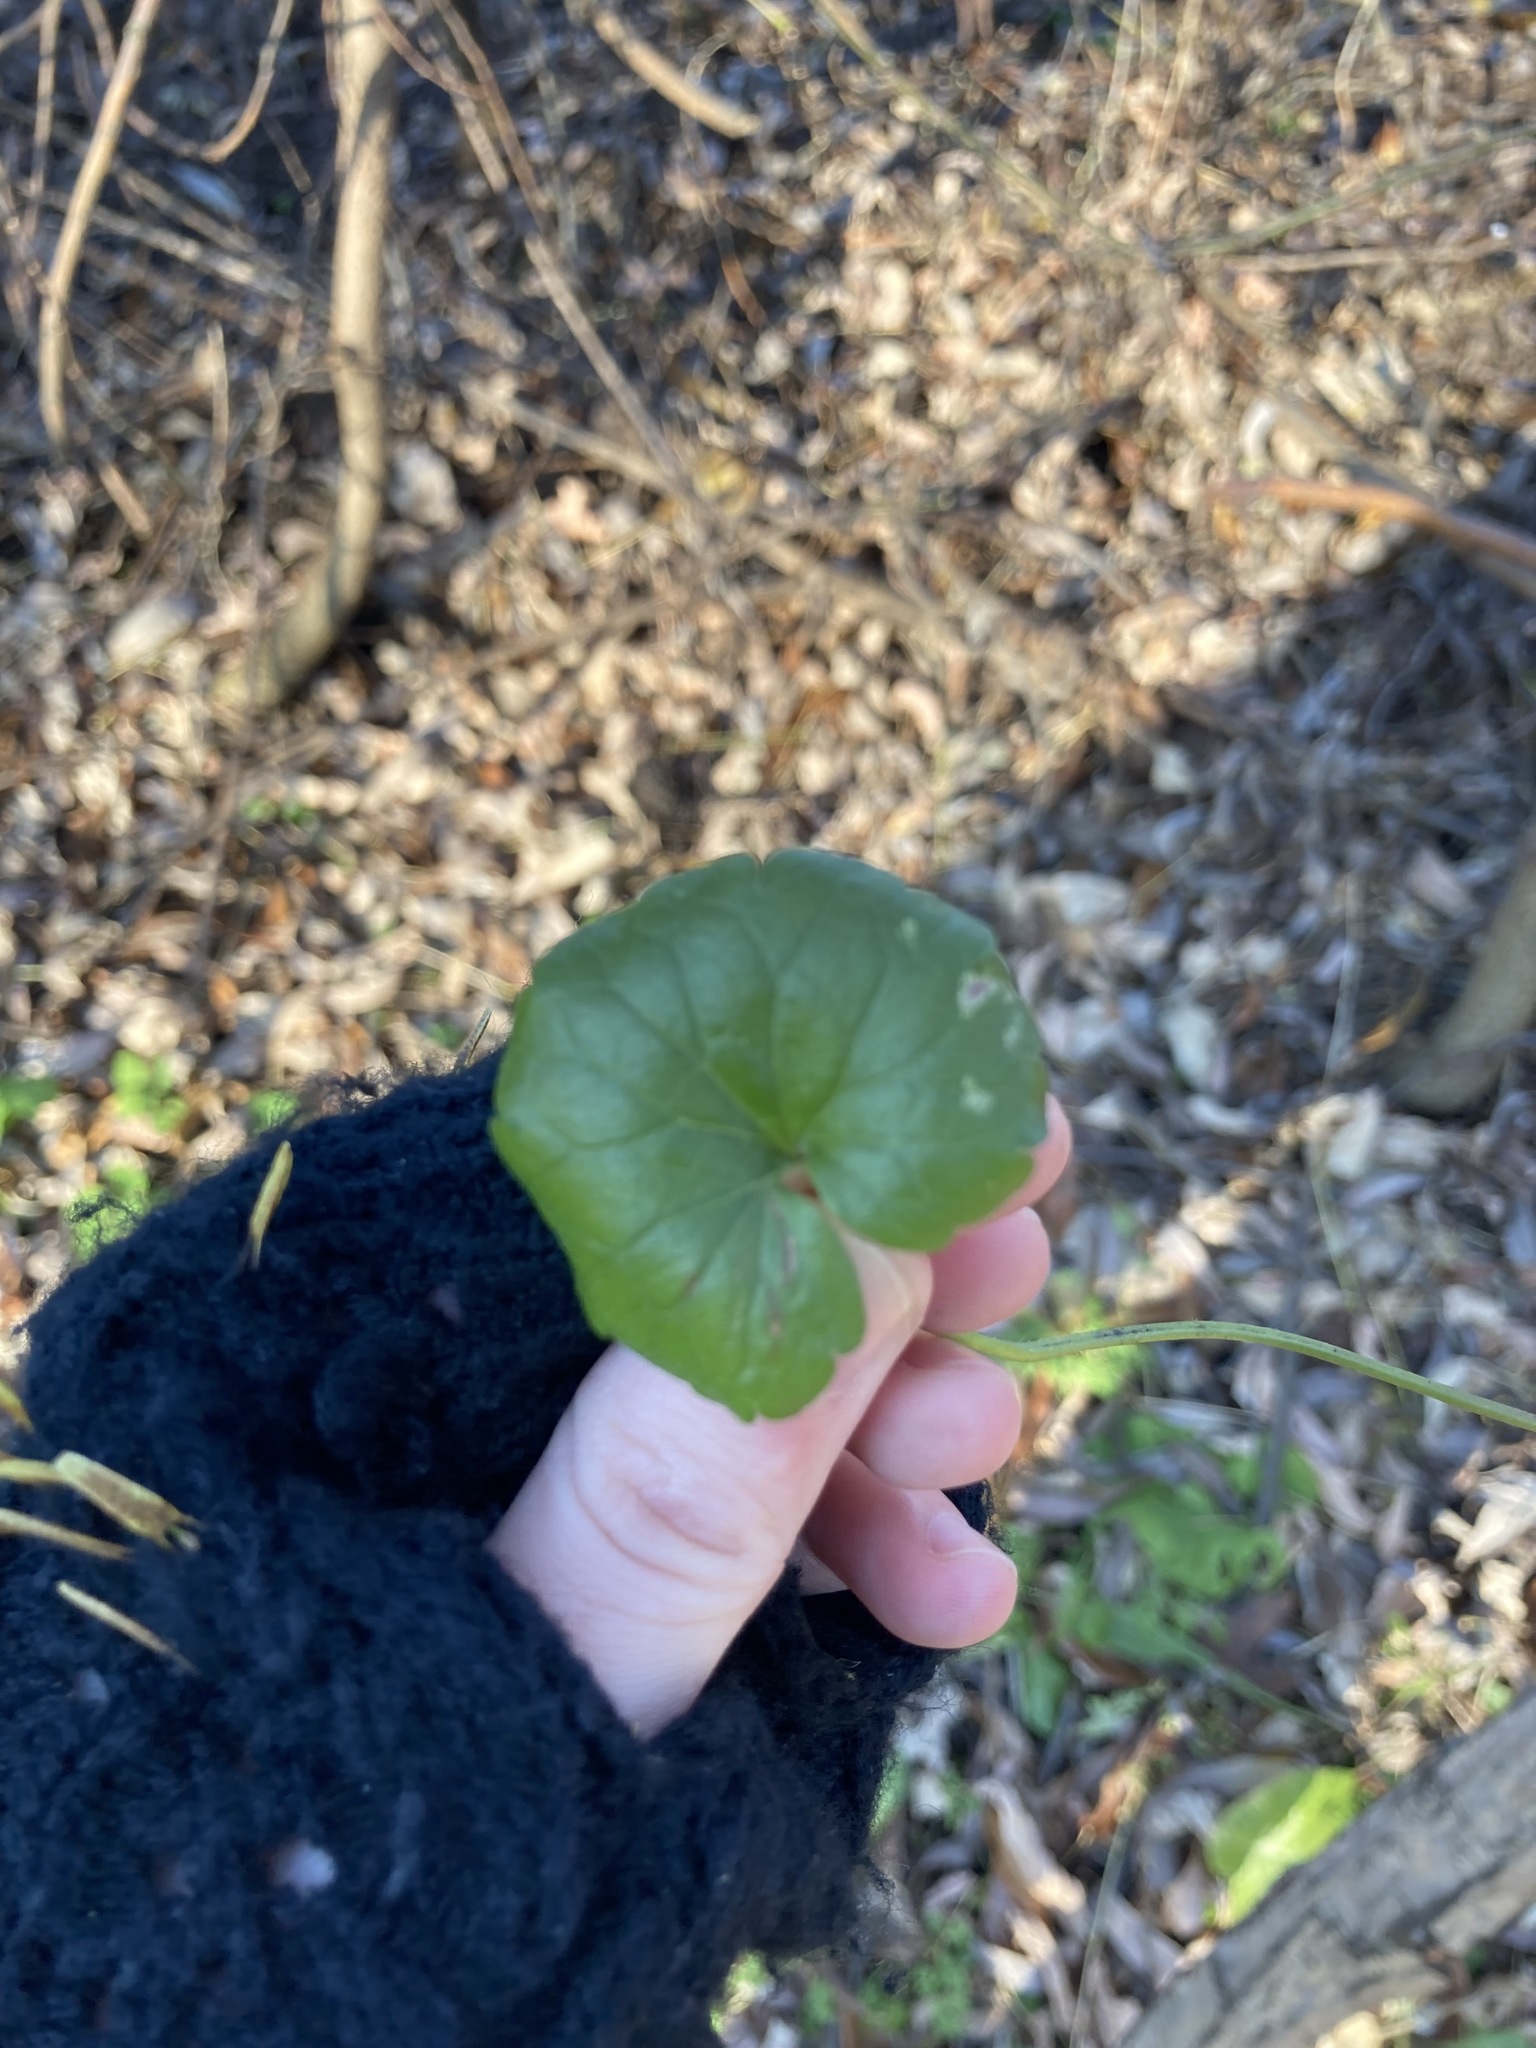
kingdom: Plantae
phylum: Tracheophyta
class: Magnoliopsida
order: Lamiales
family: Lamiaceae
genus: Glechoma
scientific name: Glechoma hederacea
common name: Ground ivy
